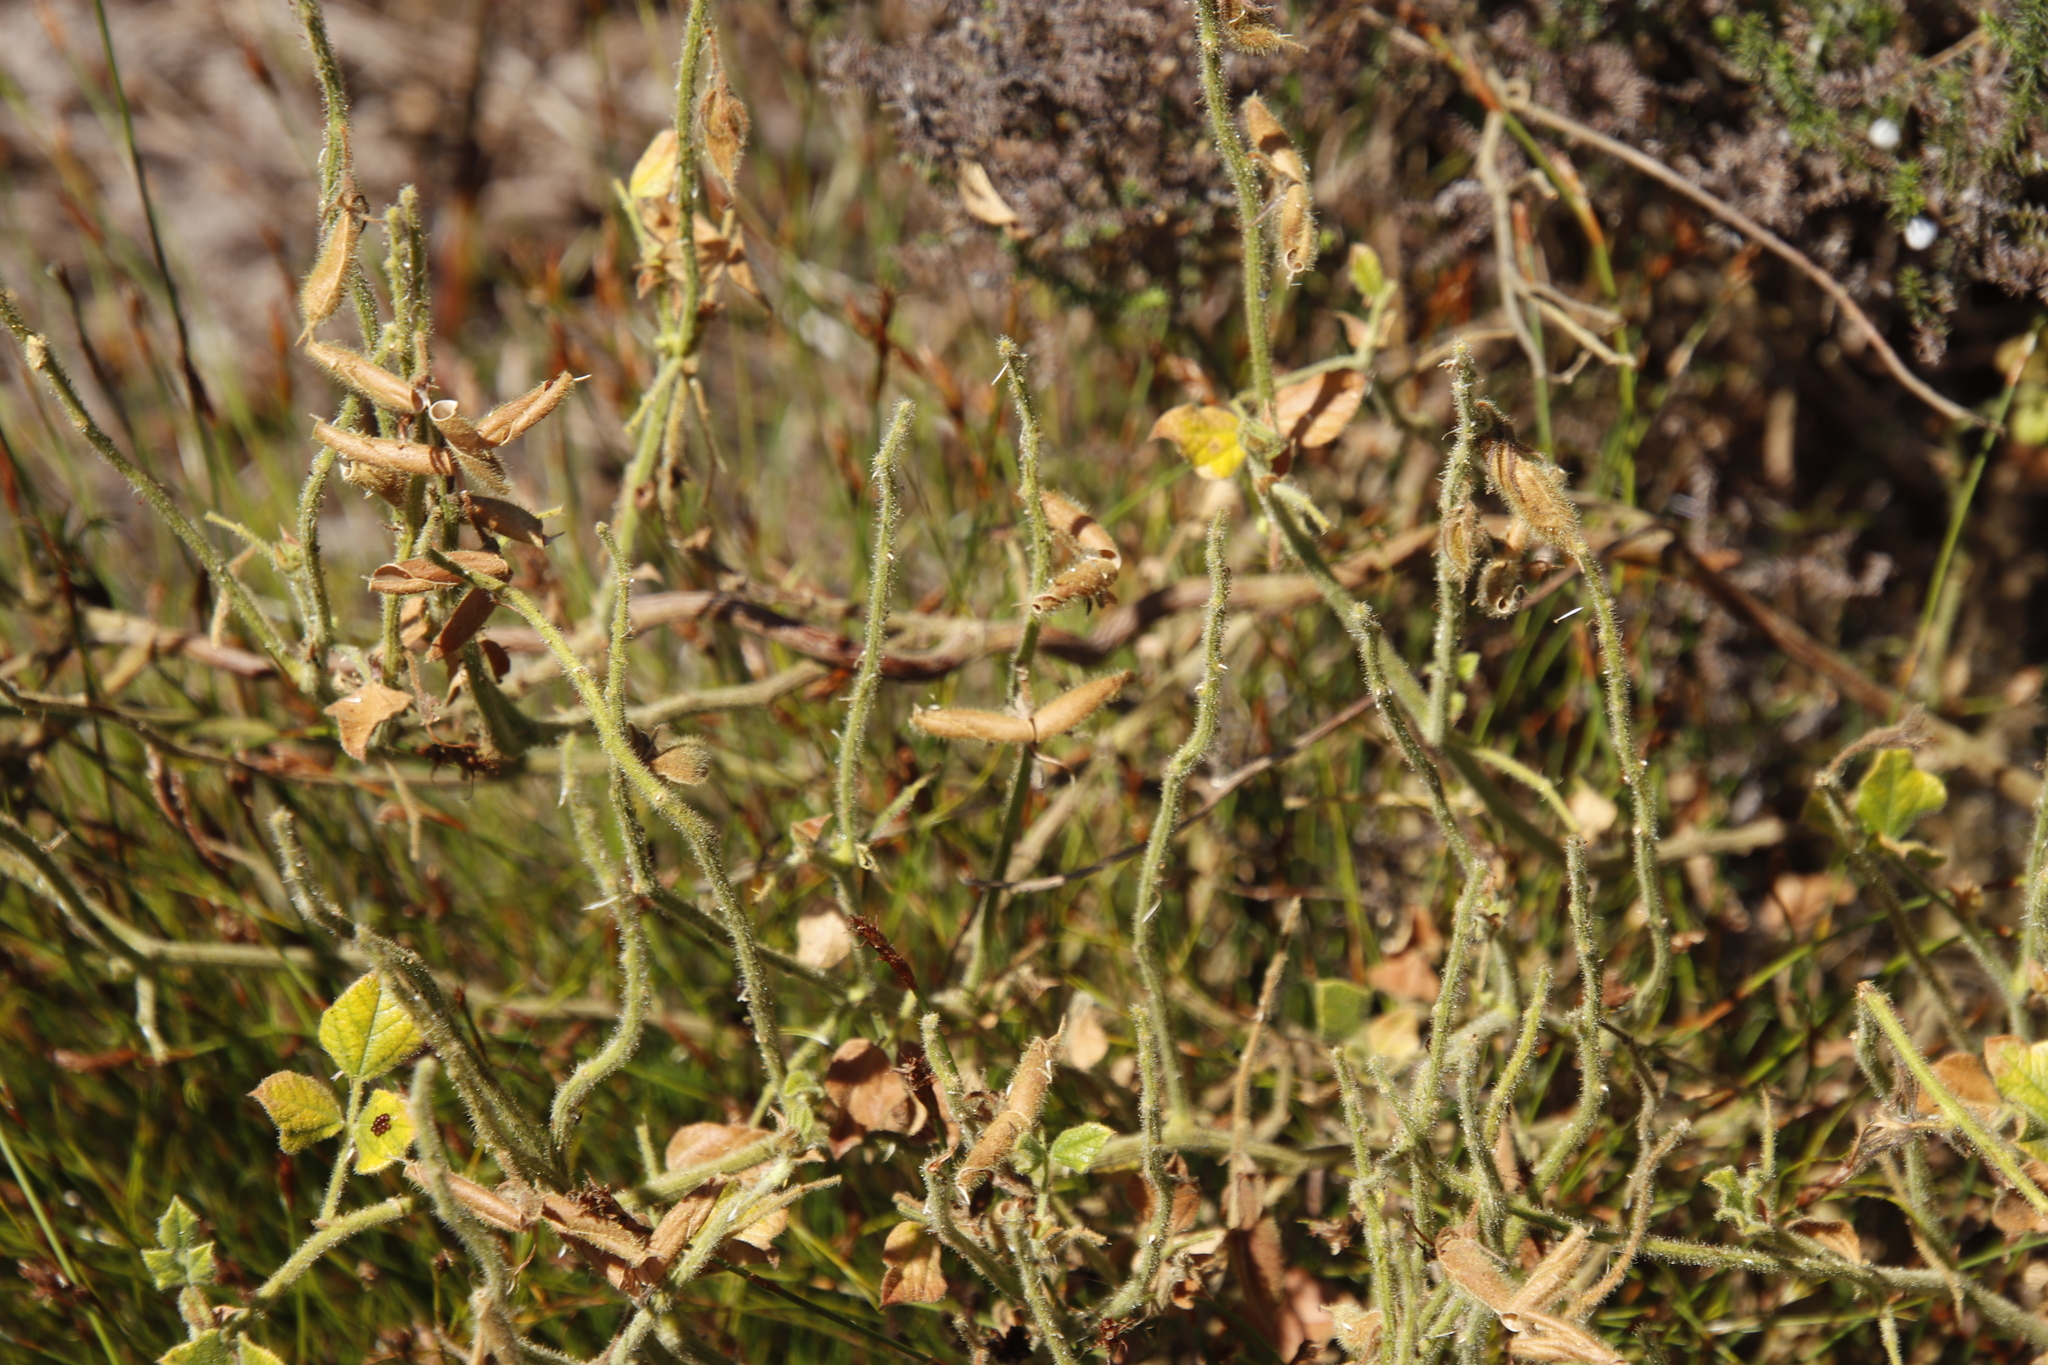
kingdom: Plantae
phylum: Tracheophyta
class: Magnoliopsida
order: Fabales
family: Fabaceae
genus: Bolusafra
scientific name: Bolusafra bituminosa
